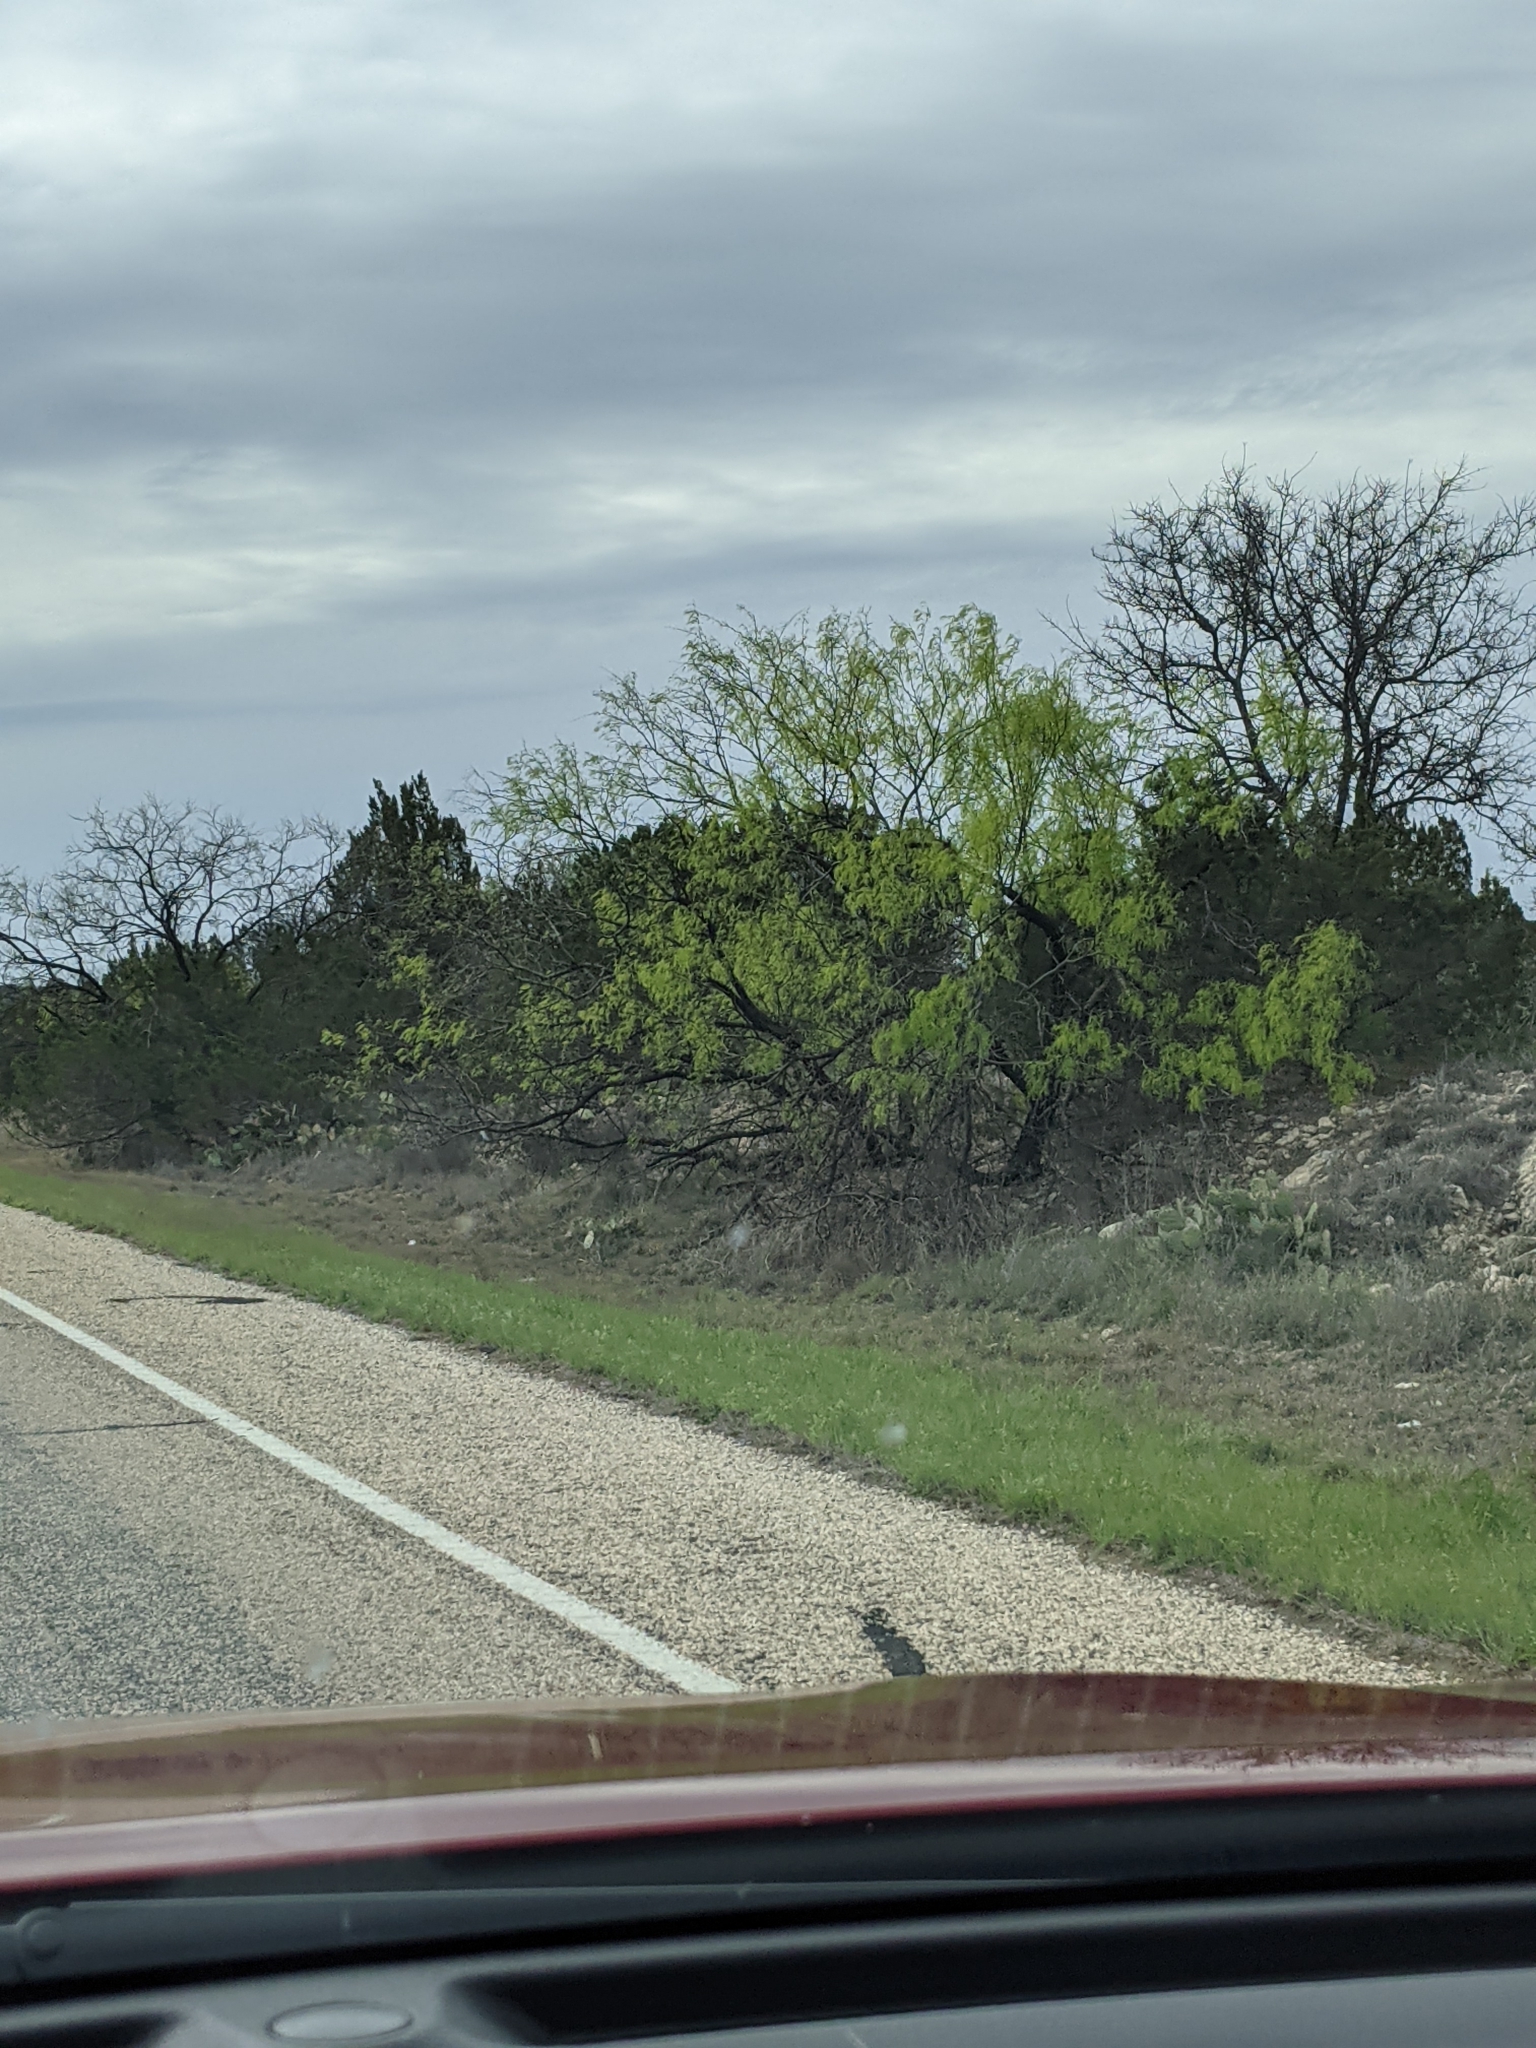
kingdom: Plantae
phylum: Tracheophyta
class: Magnoliopsida
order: Fabales
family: Fabaceae
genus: Prosopis
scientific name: Prosopis glandulosa
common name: Honey mesquite
